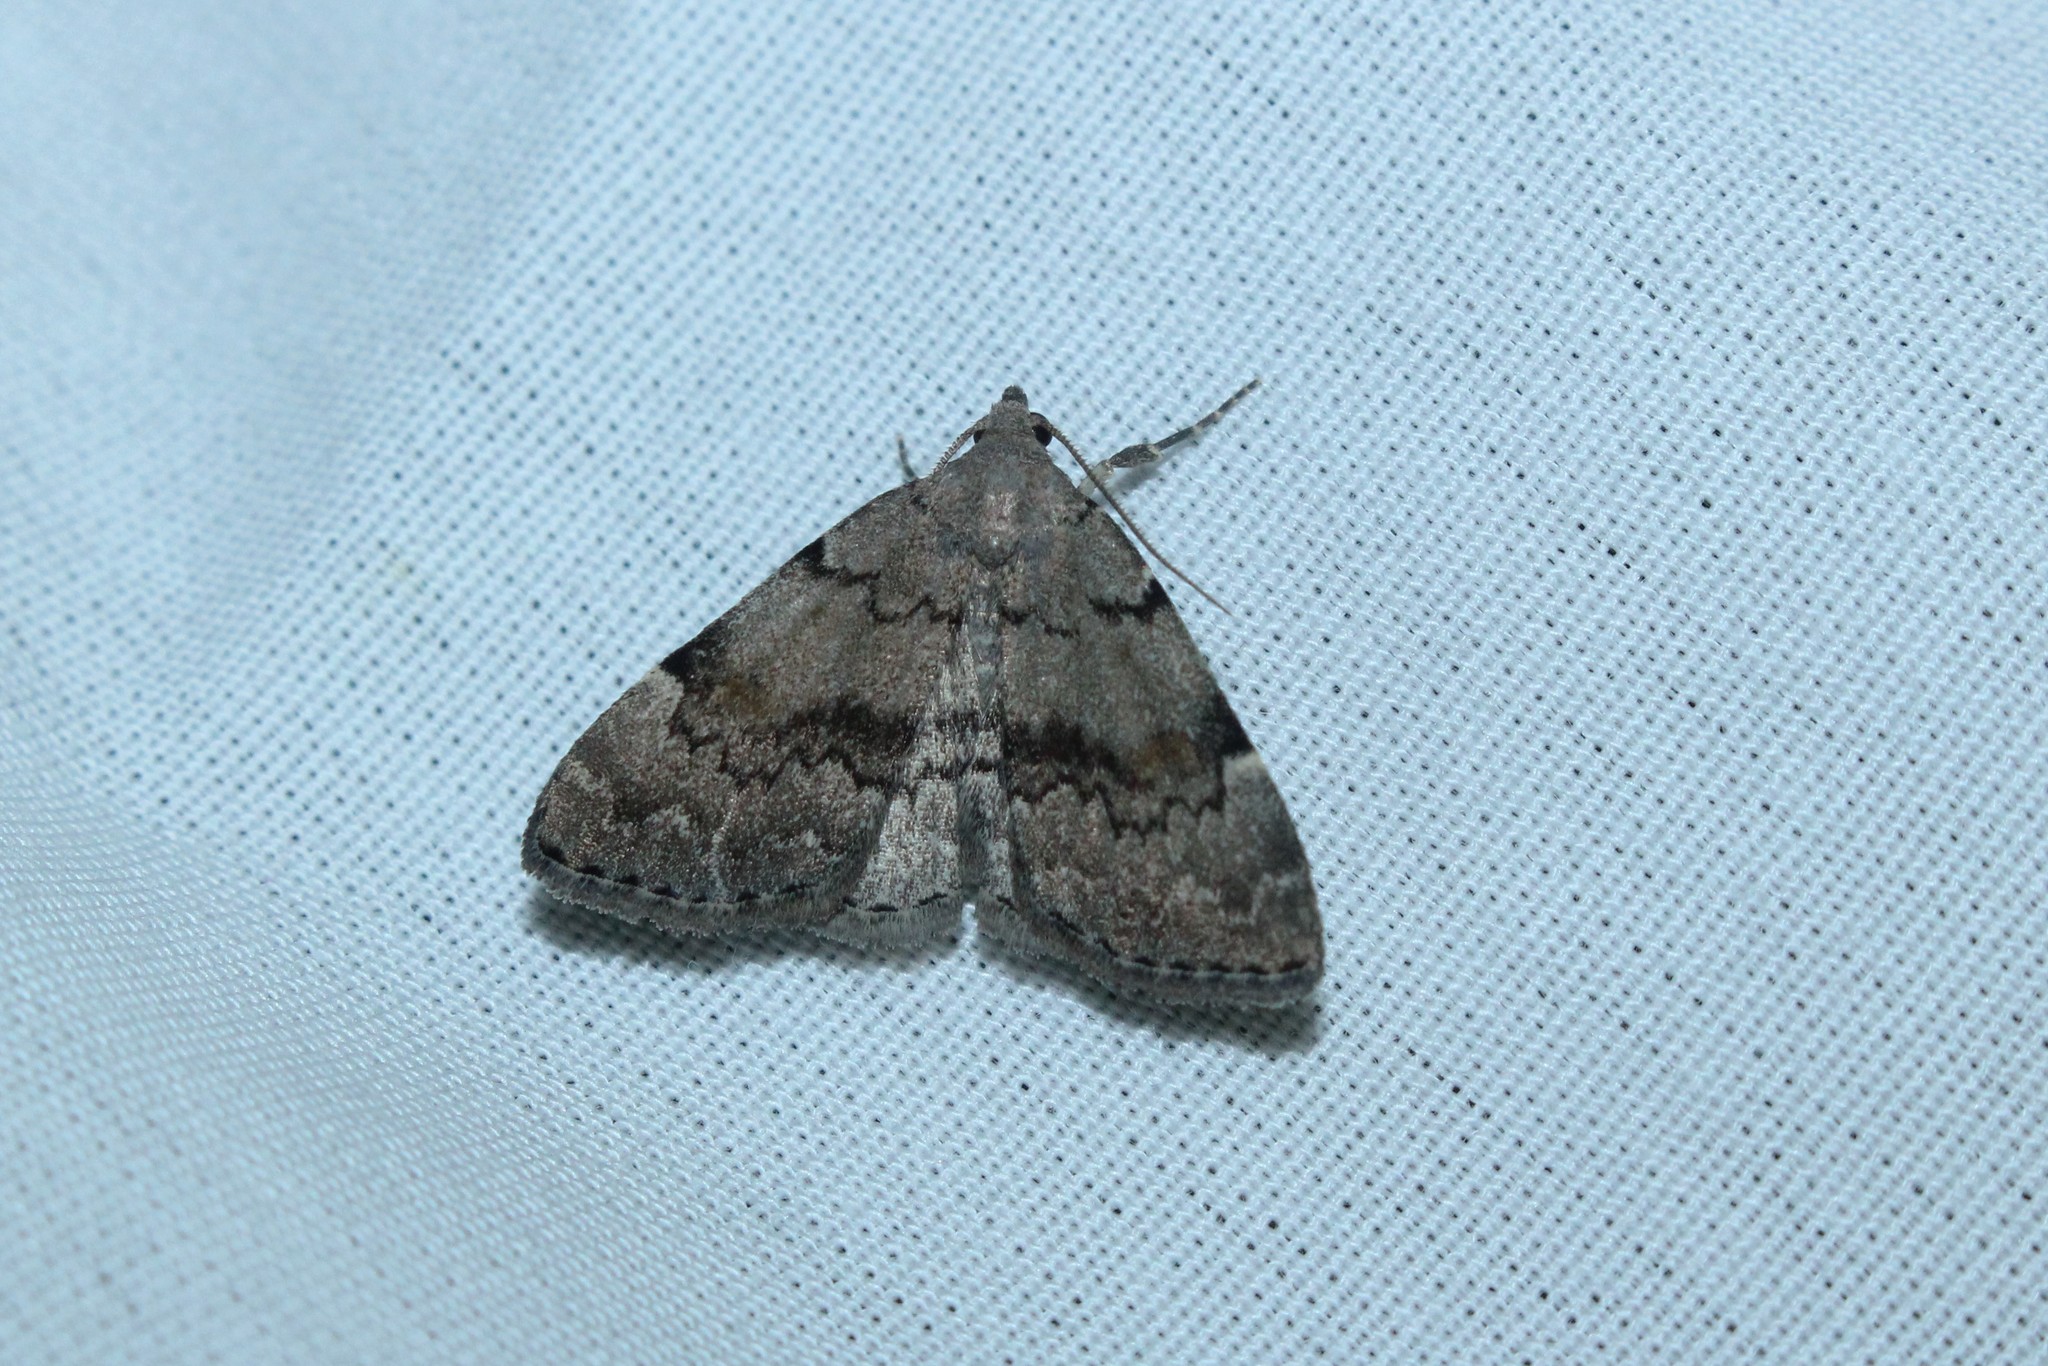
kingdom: Animalia
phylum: Arthropoda
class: Insecta
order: Lepidoptera
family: Erebidae
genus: Idia
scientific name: Idia americalis
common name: American idia moth
